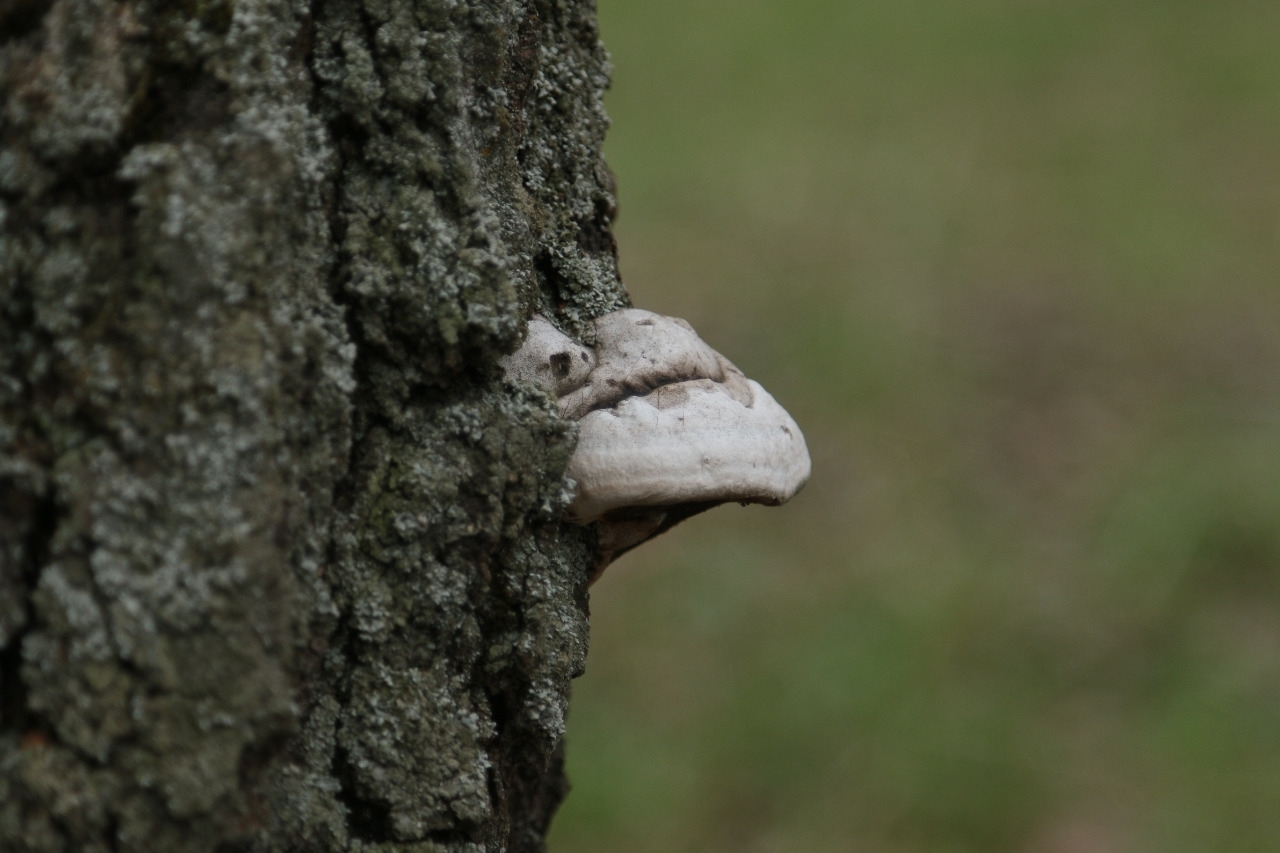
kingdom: Fungi
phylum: Basidiomycota
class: Agaricomycetes
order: Polyporales
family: Polyporaceae
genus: Fomes
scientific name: Fomes fomentarius
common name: Hoof fungus
